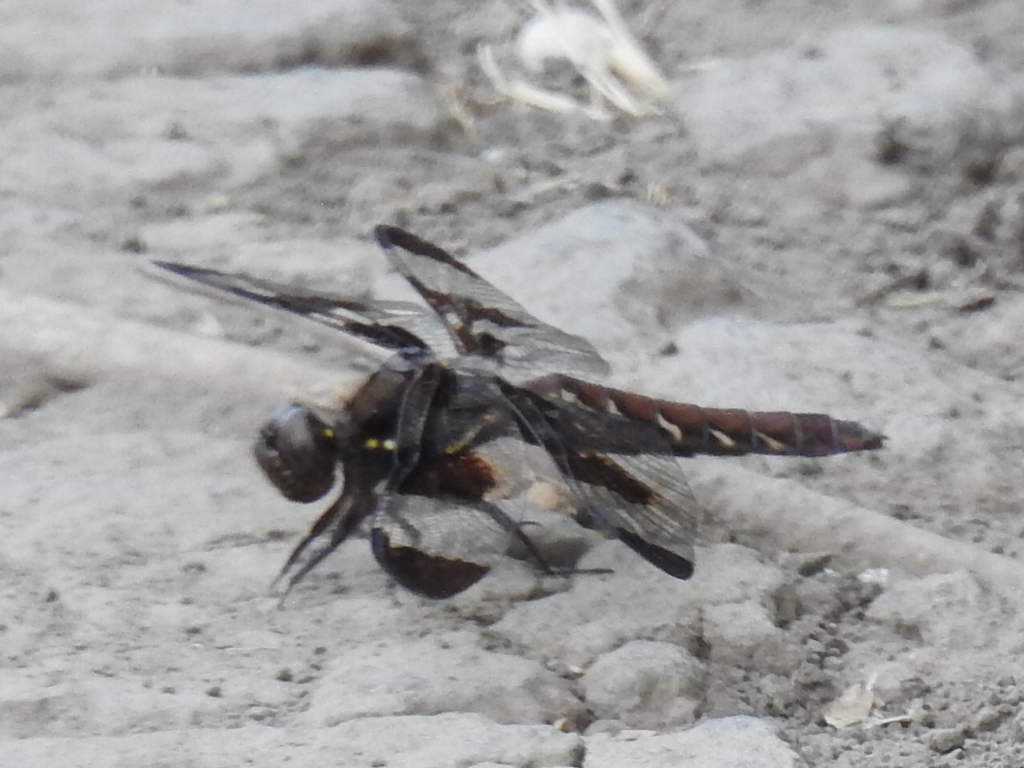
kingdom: Animalia
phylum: Arthropoda
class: Insecta
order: Odonata
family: Libellulidae
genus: Plathemis
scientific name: Plathemis lydia
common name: Common whitetail
